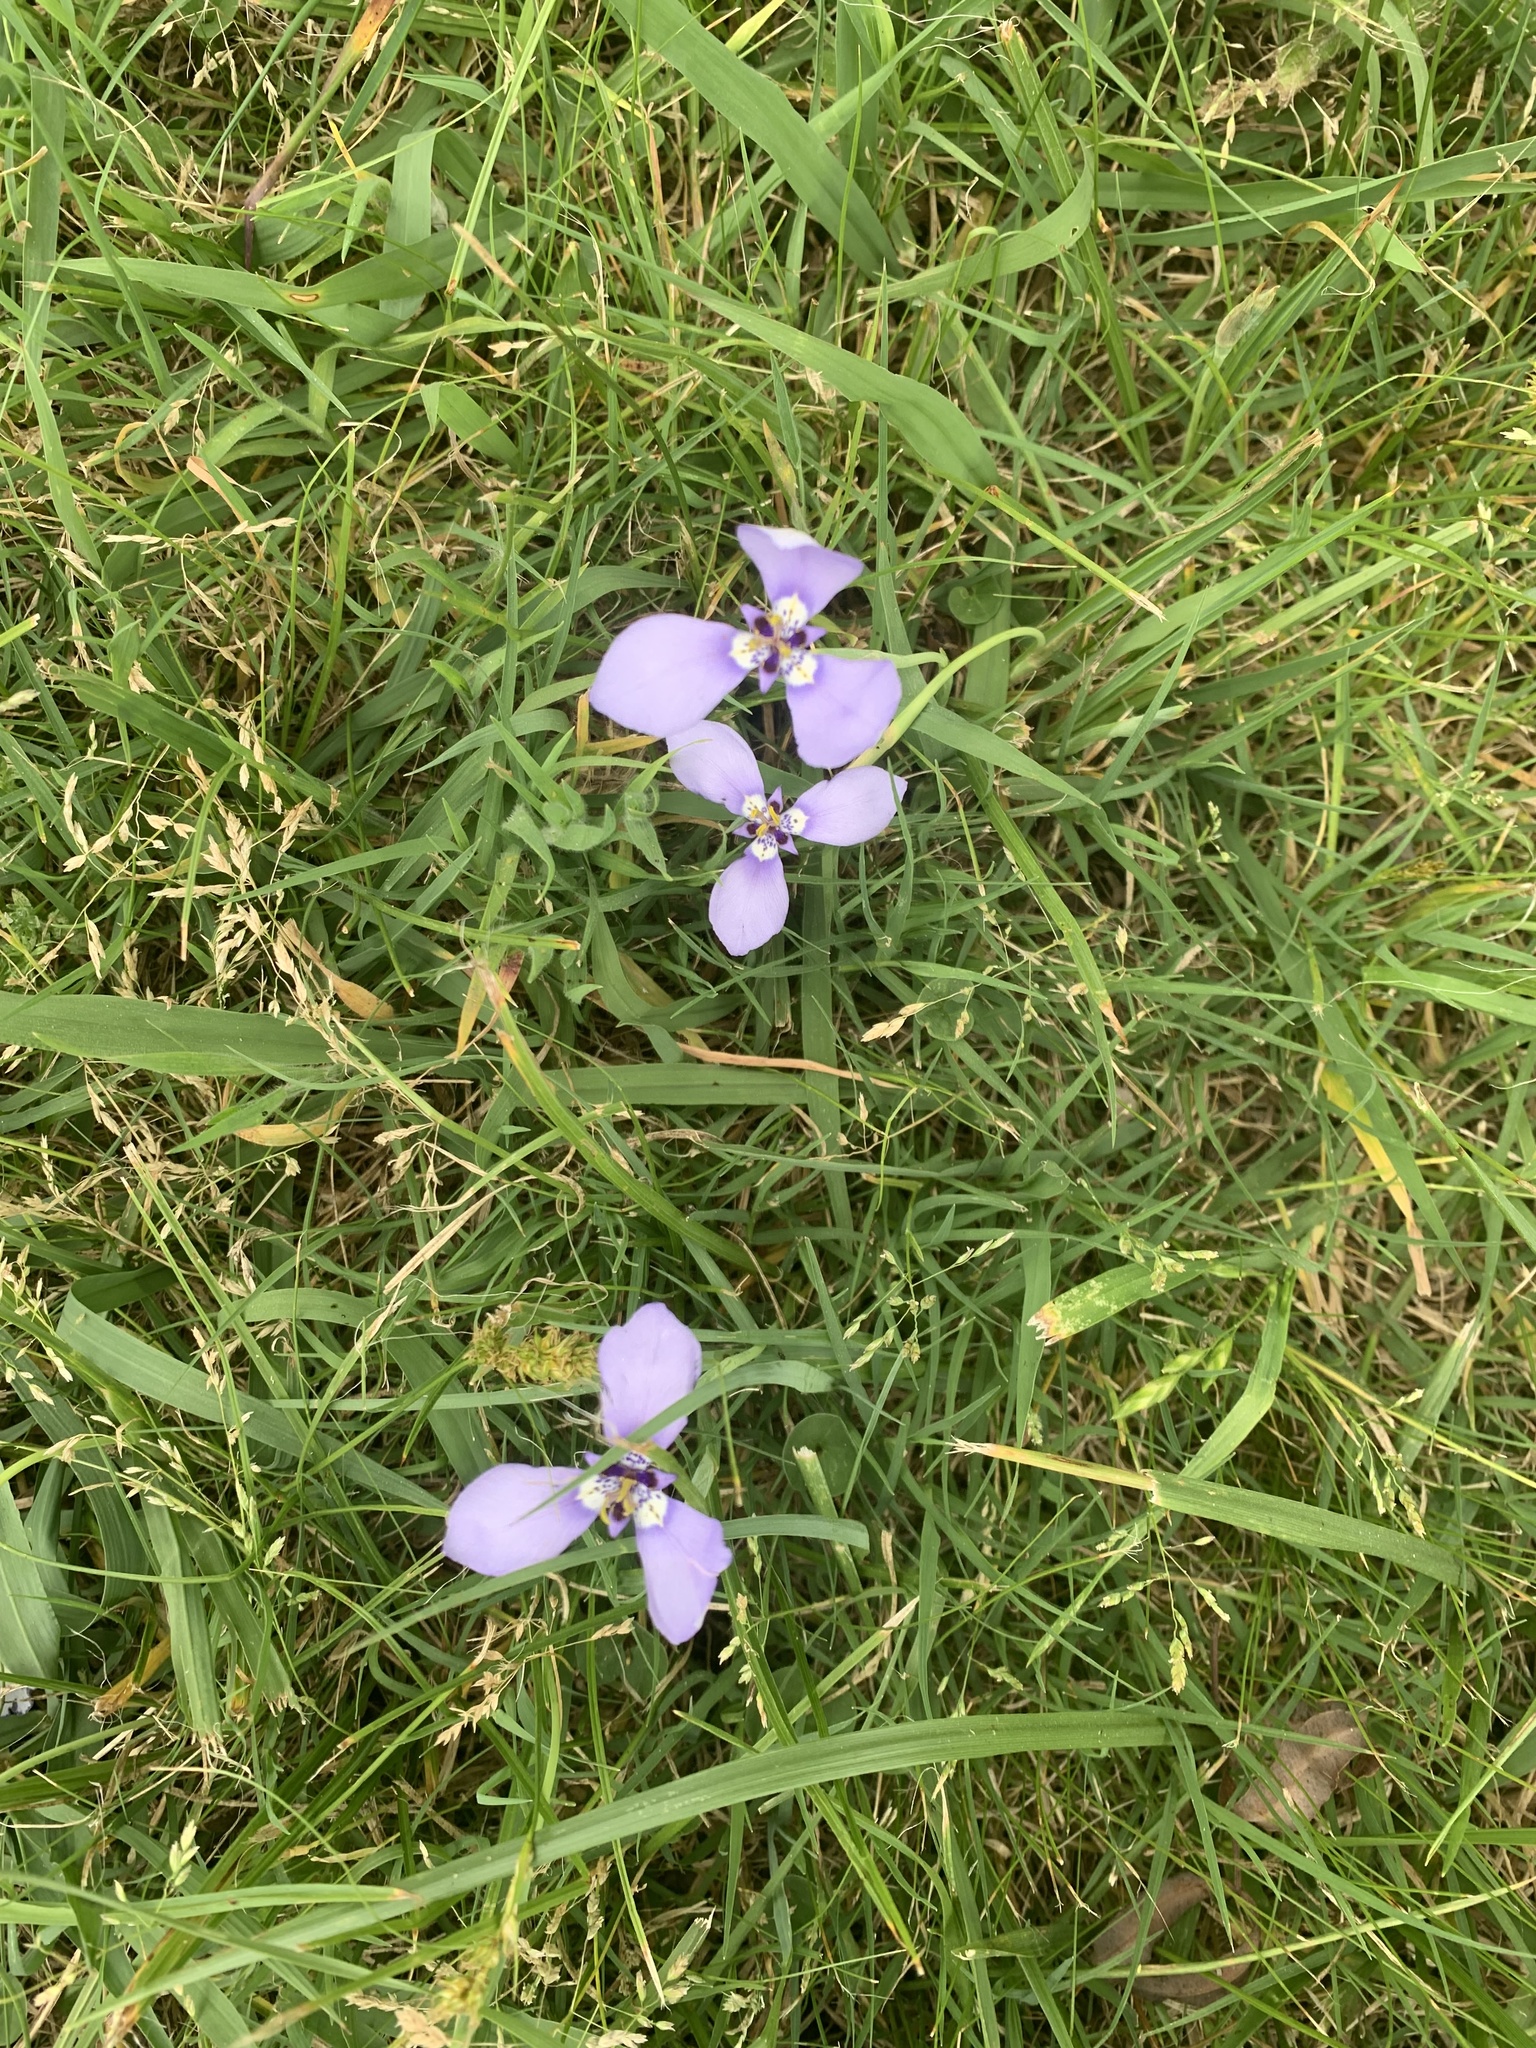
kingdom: Plantae
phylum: Tracheophyta
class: Liliopsida
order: Asparagales
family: Iridaceae
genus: Herbertia
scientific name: Herbertia lahue
